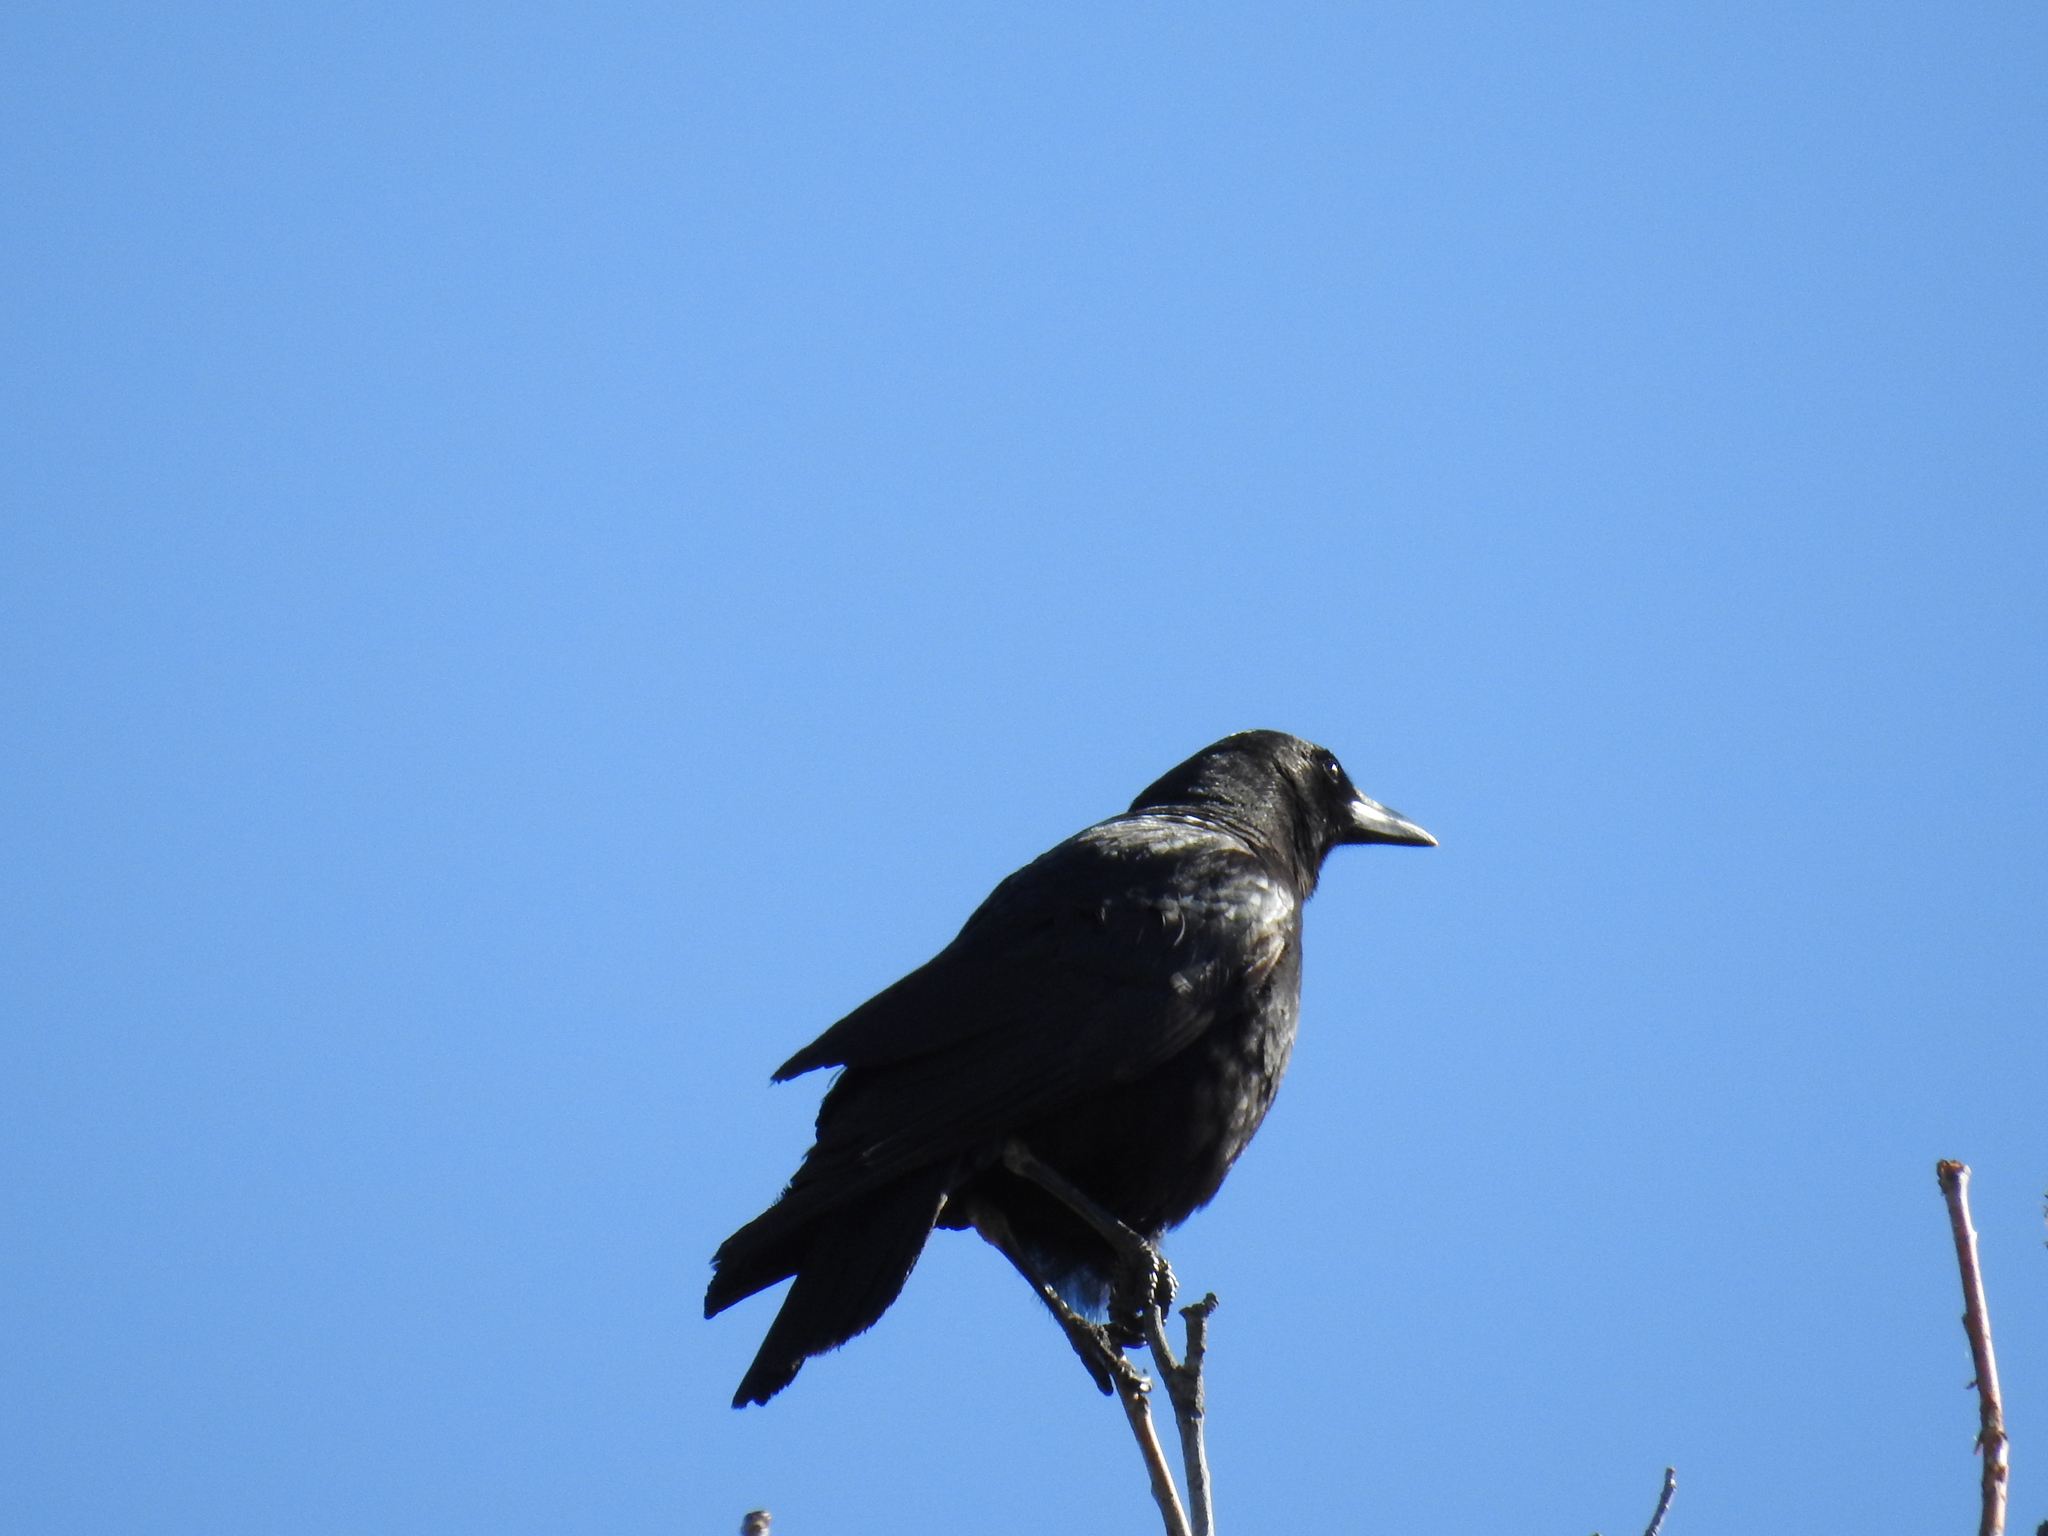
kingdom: Animalia
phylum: Chordata
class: Aves
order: Passeriformes
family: Corvidae
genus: Corvus
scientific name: Corvus brachyrhynchos
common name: American crow
